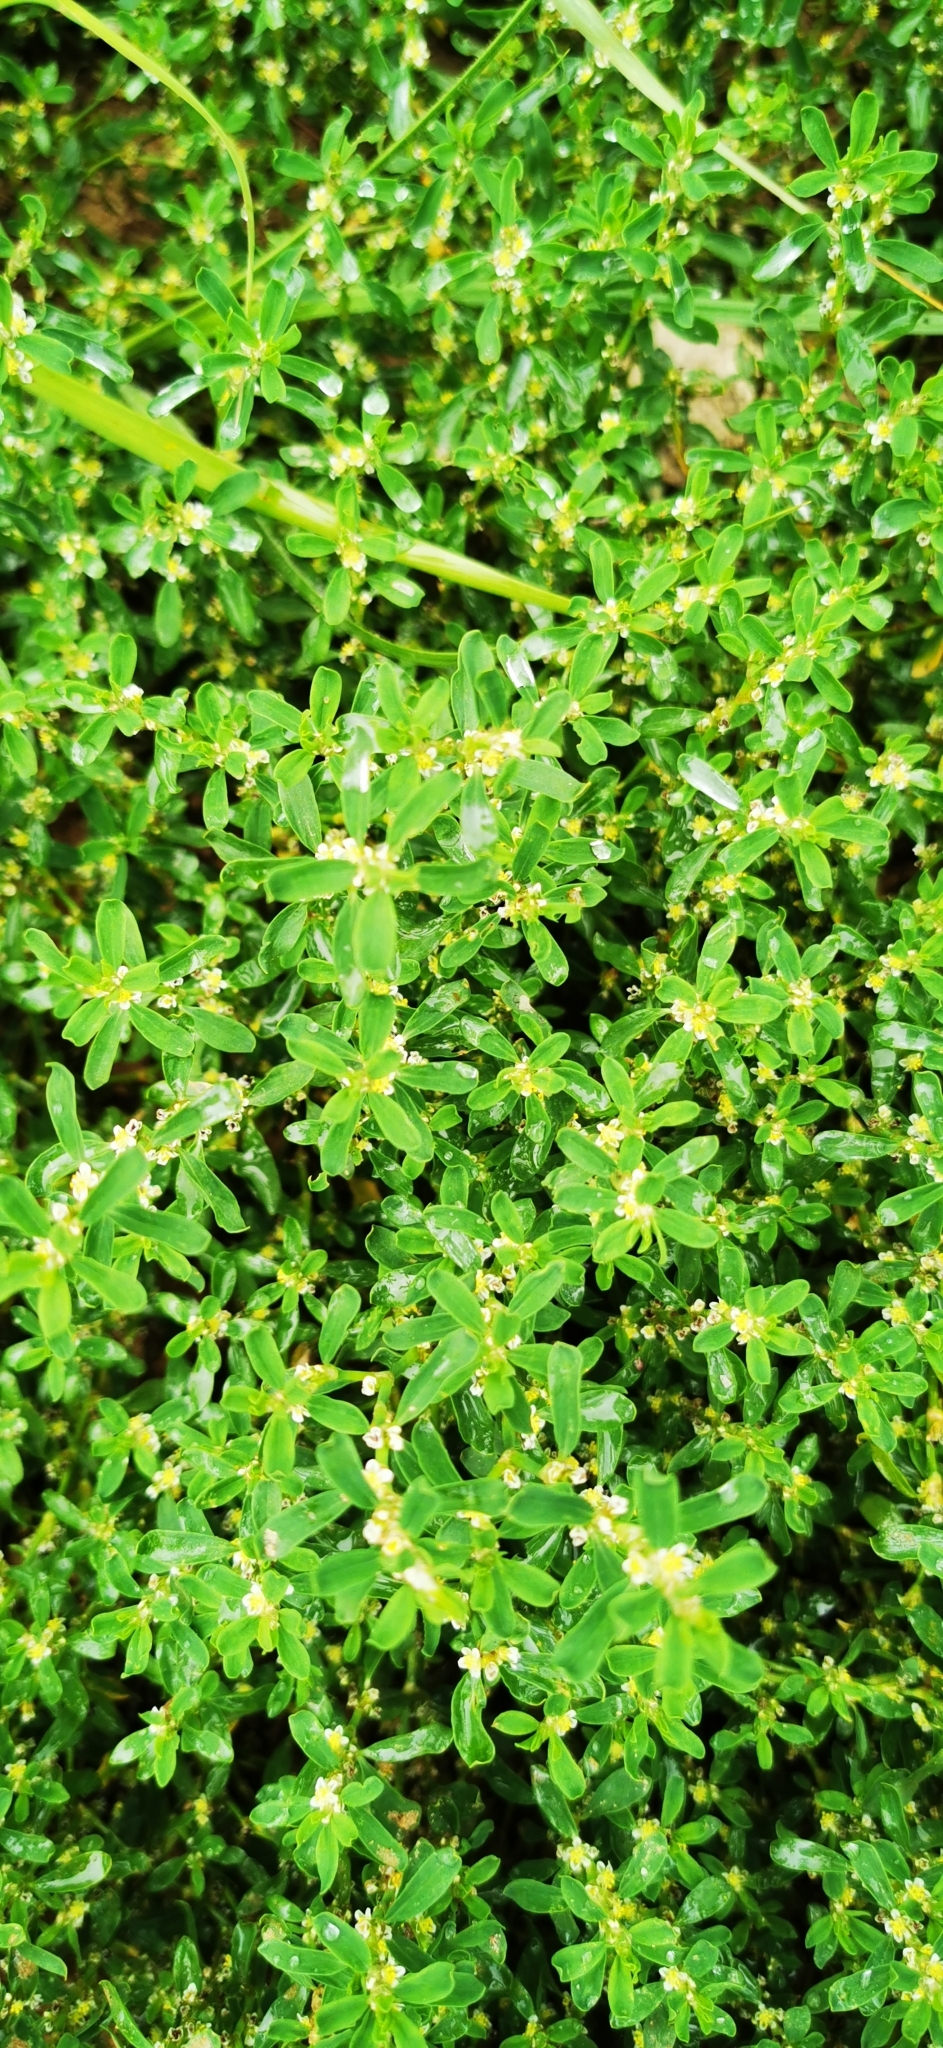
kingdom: Plantae
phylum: Tracheophyta
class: Magnoliopsida
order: Caryophyllales
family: Polygonaceae
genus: Polygonum
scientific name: Polygonum aviculare
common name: Prostrate knotweed
